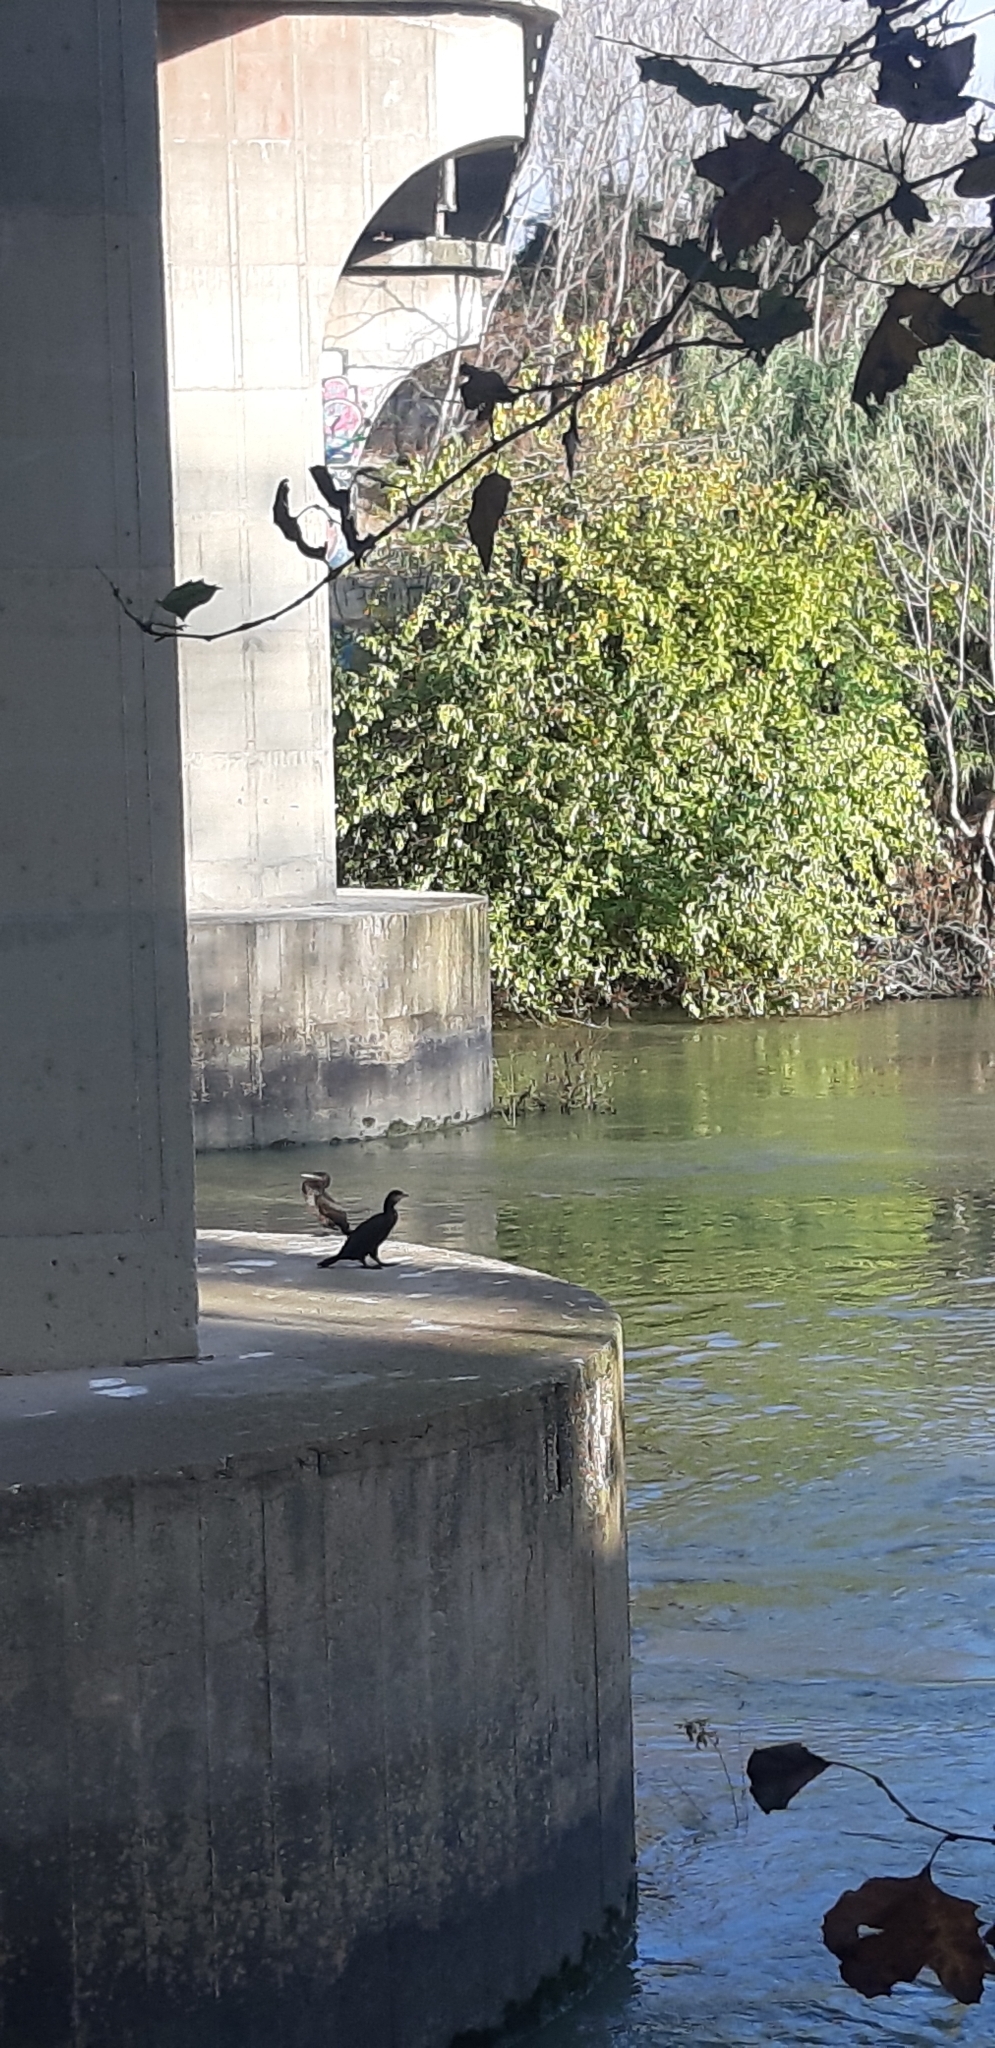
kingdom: Animalia
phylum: Chordata
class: Aves
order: Suliformes
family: Phalacrocoracidae
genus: Phalacrocorax
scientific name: Phalacrocorax carbo
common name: Great cormorant
